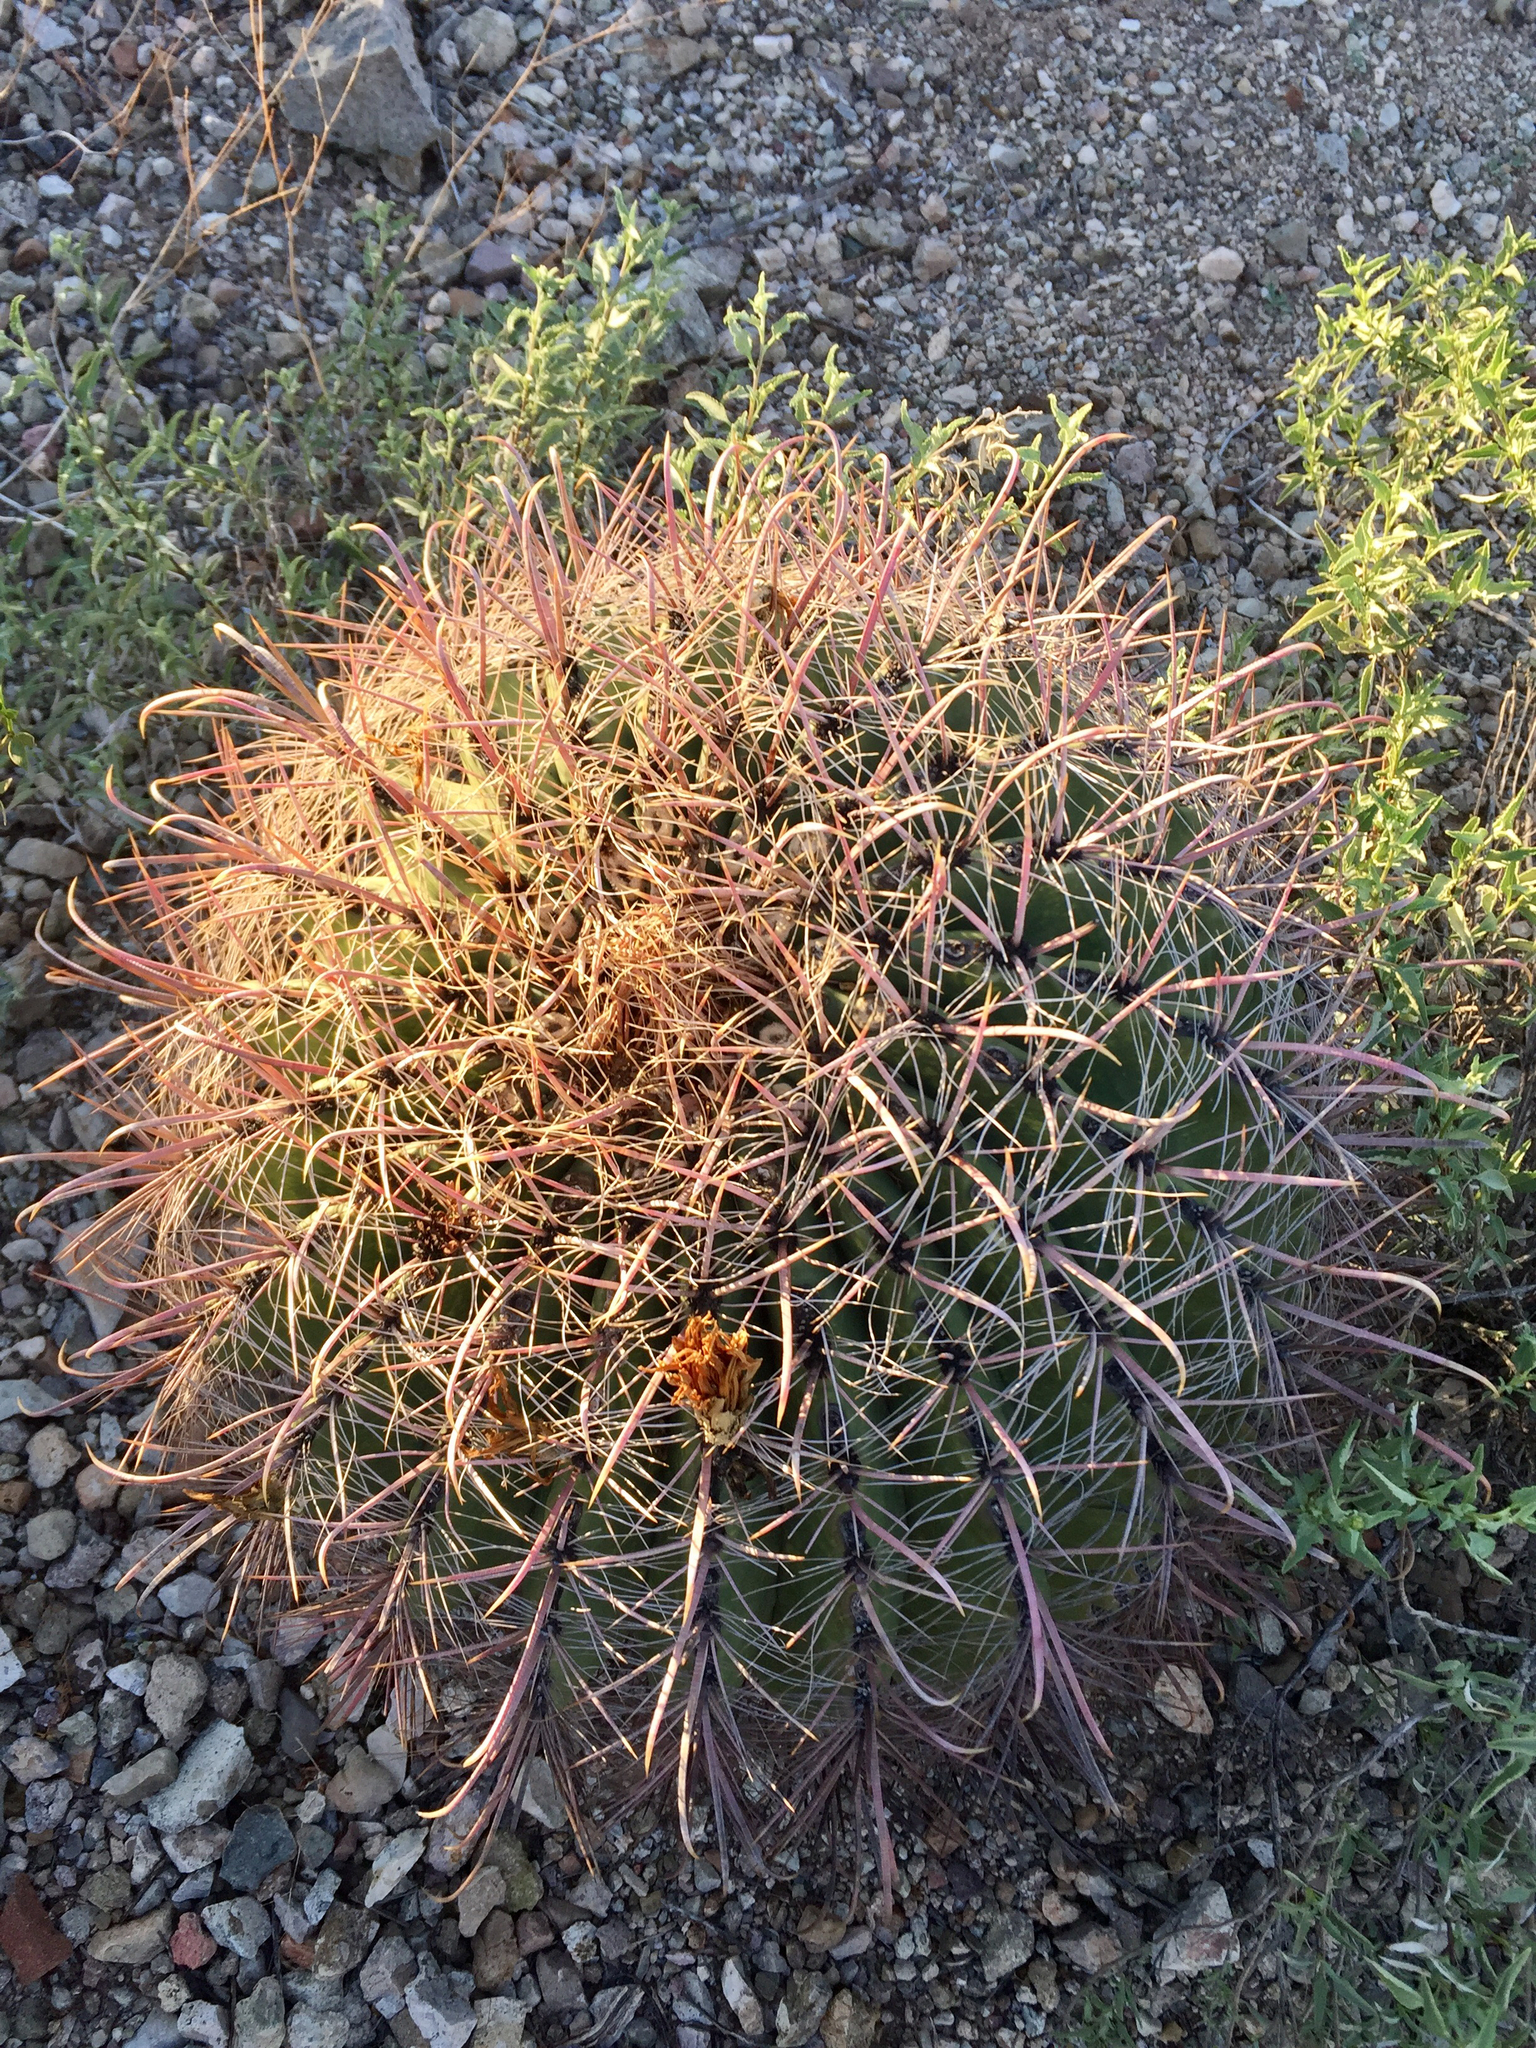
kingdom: Plantae
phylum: Tracheophyta
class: Magnoliopsida
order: Caryophyllales
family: Cactaceae
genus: Ferocactus
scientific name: Ferocactus wislizeni
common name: Candy barrel cactus
